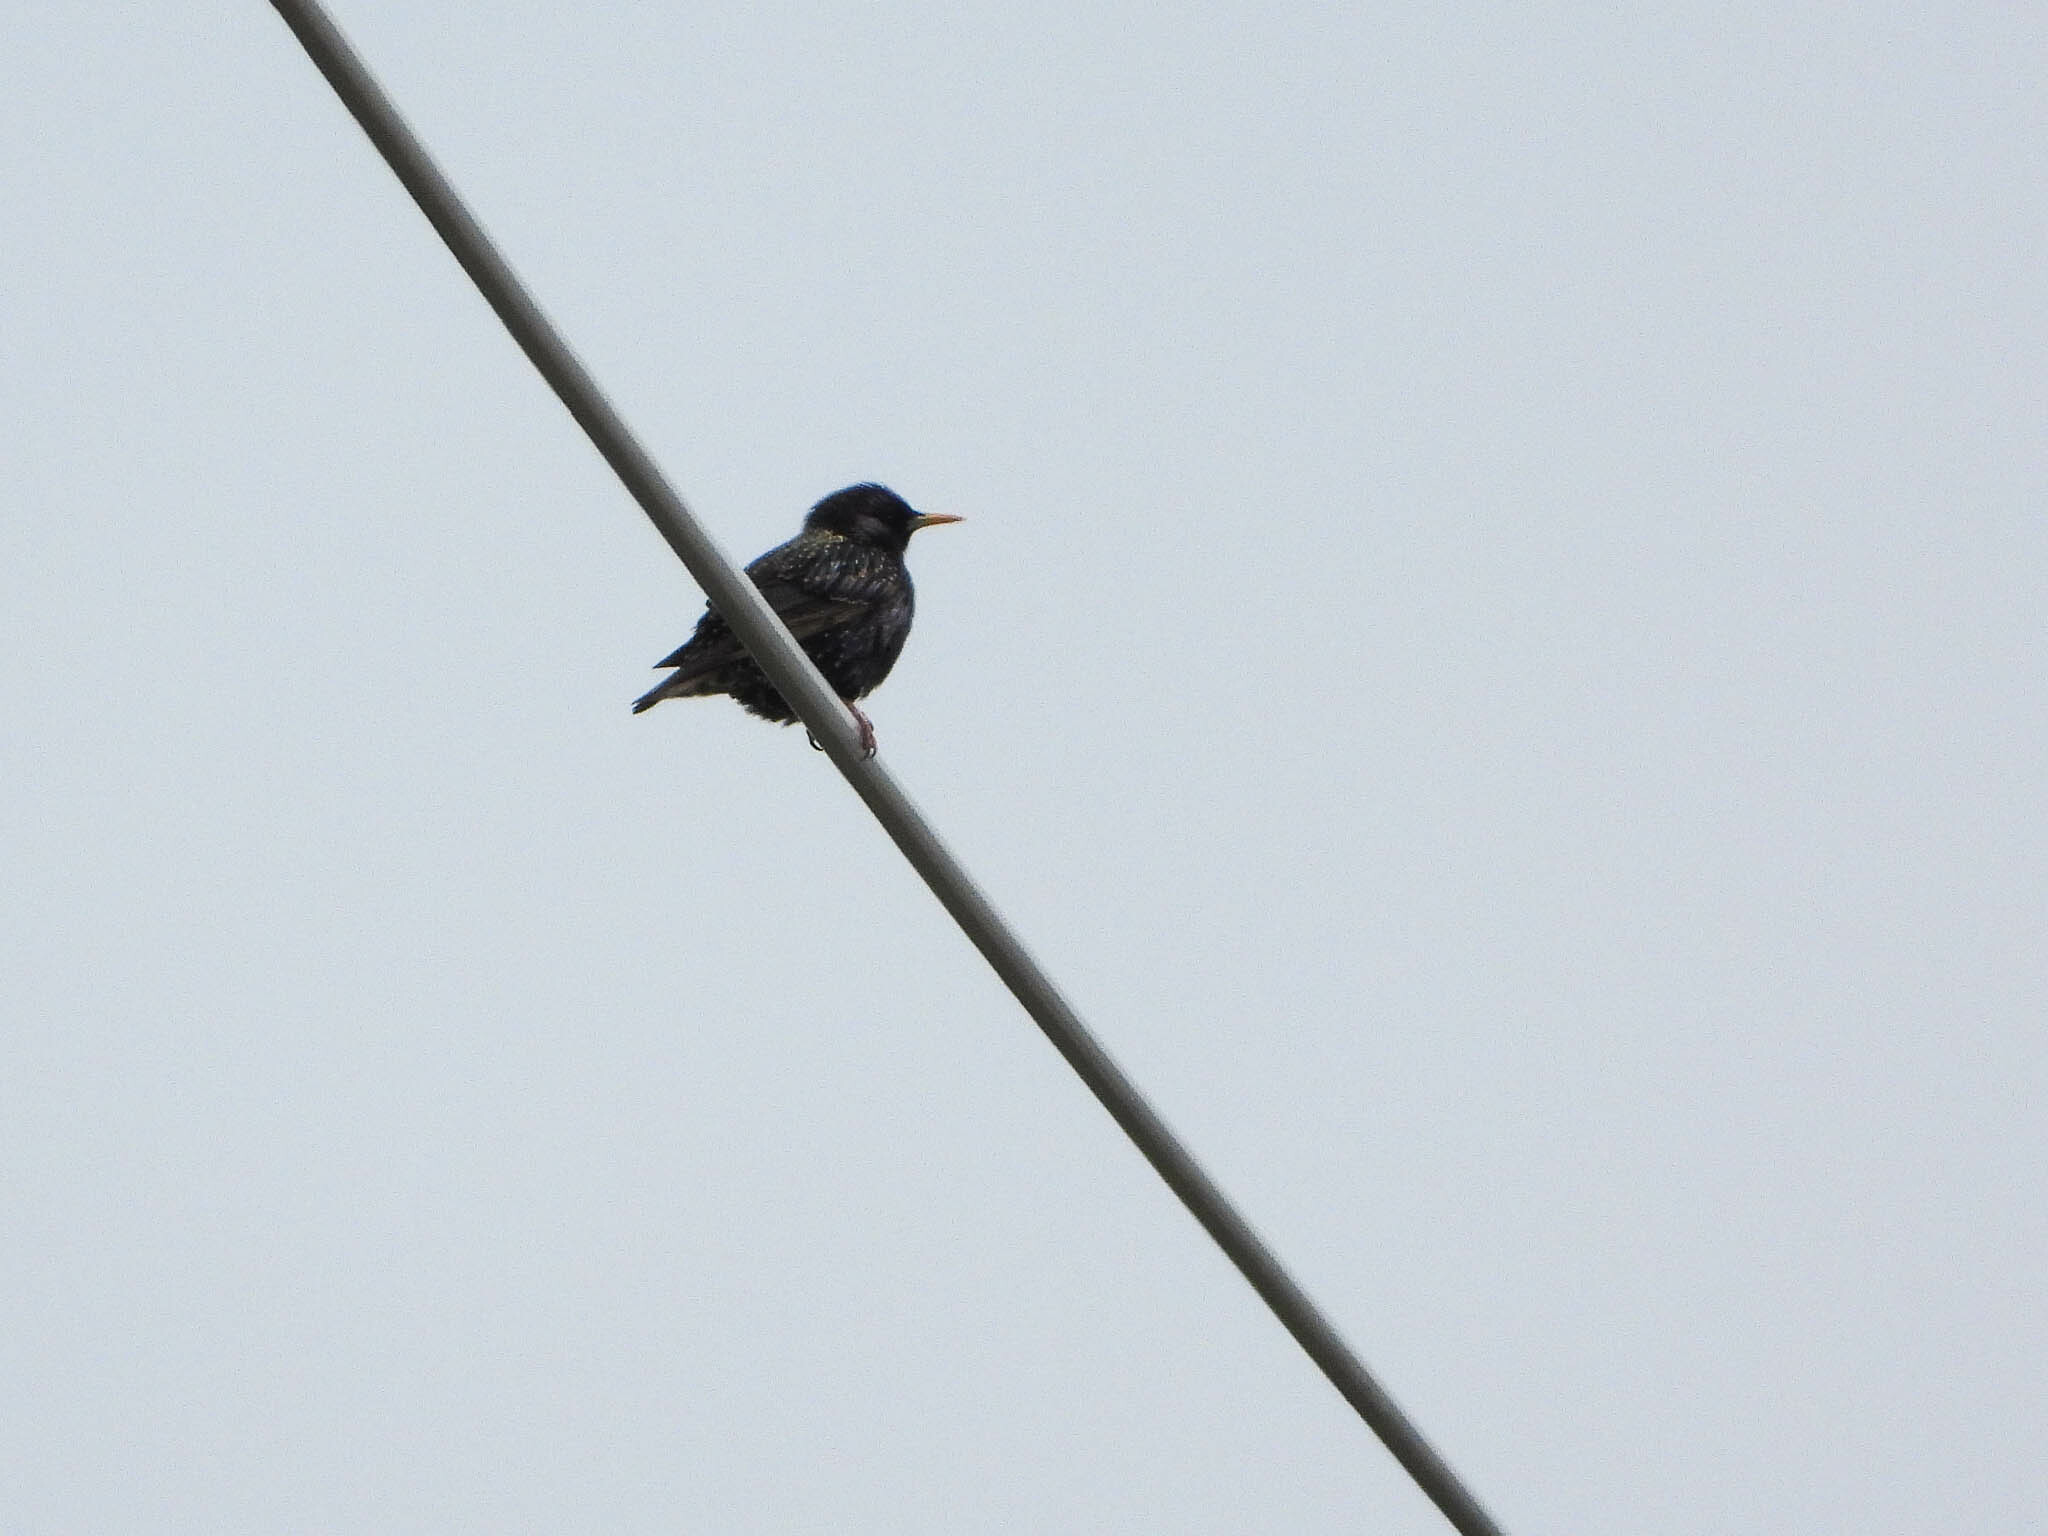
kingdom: Animalia
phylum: Chordata
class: Aves
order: Passeriformes
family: Sturnidae
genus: Sturnus
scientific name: Sturnus vulgaris
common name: Common starling
